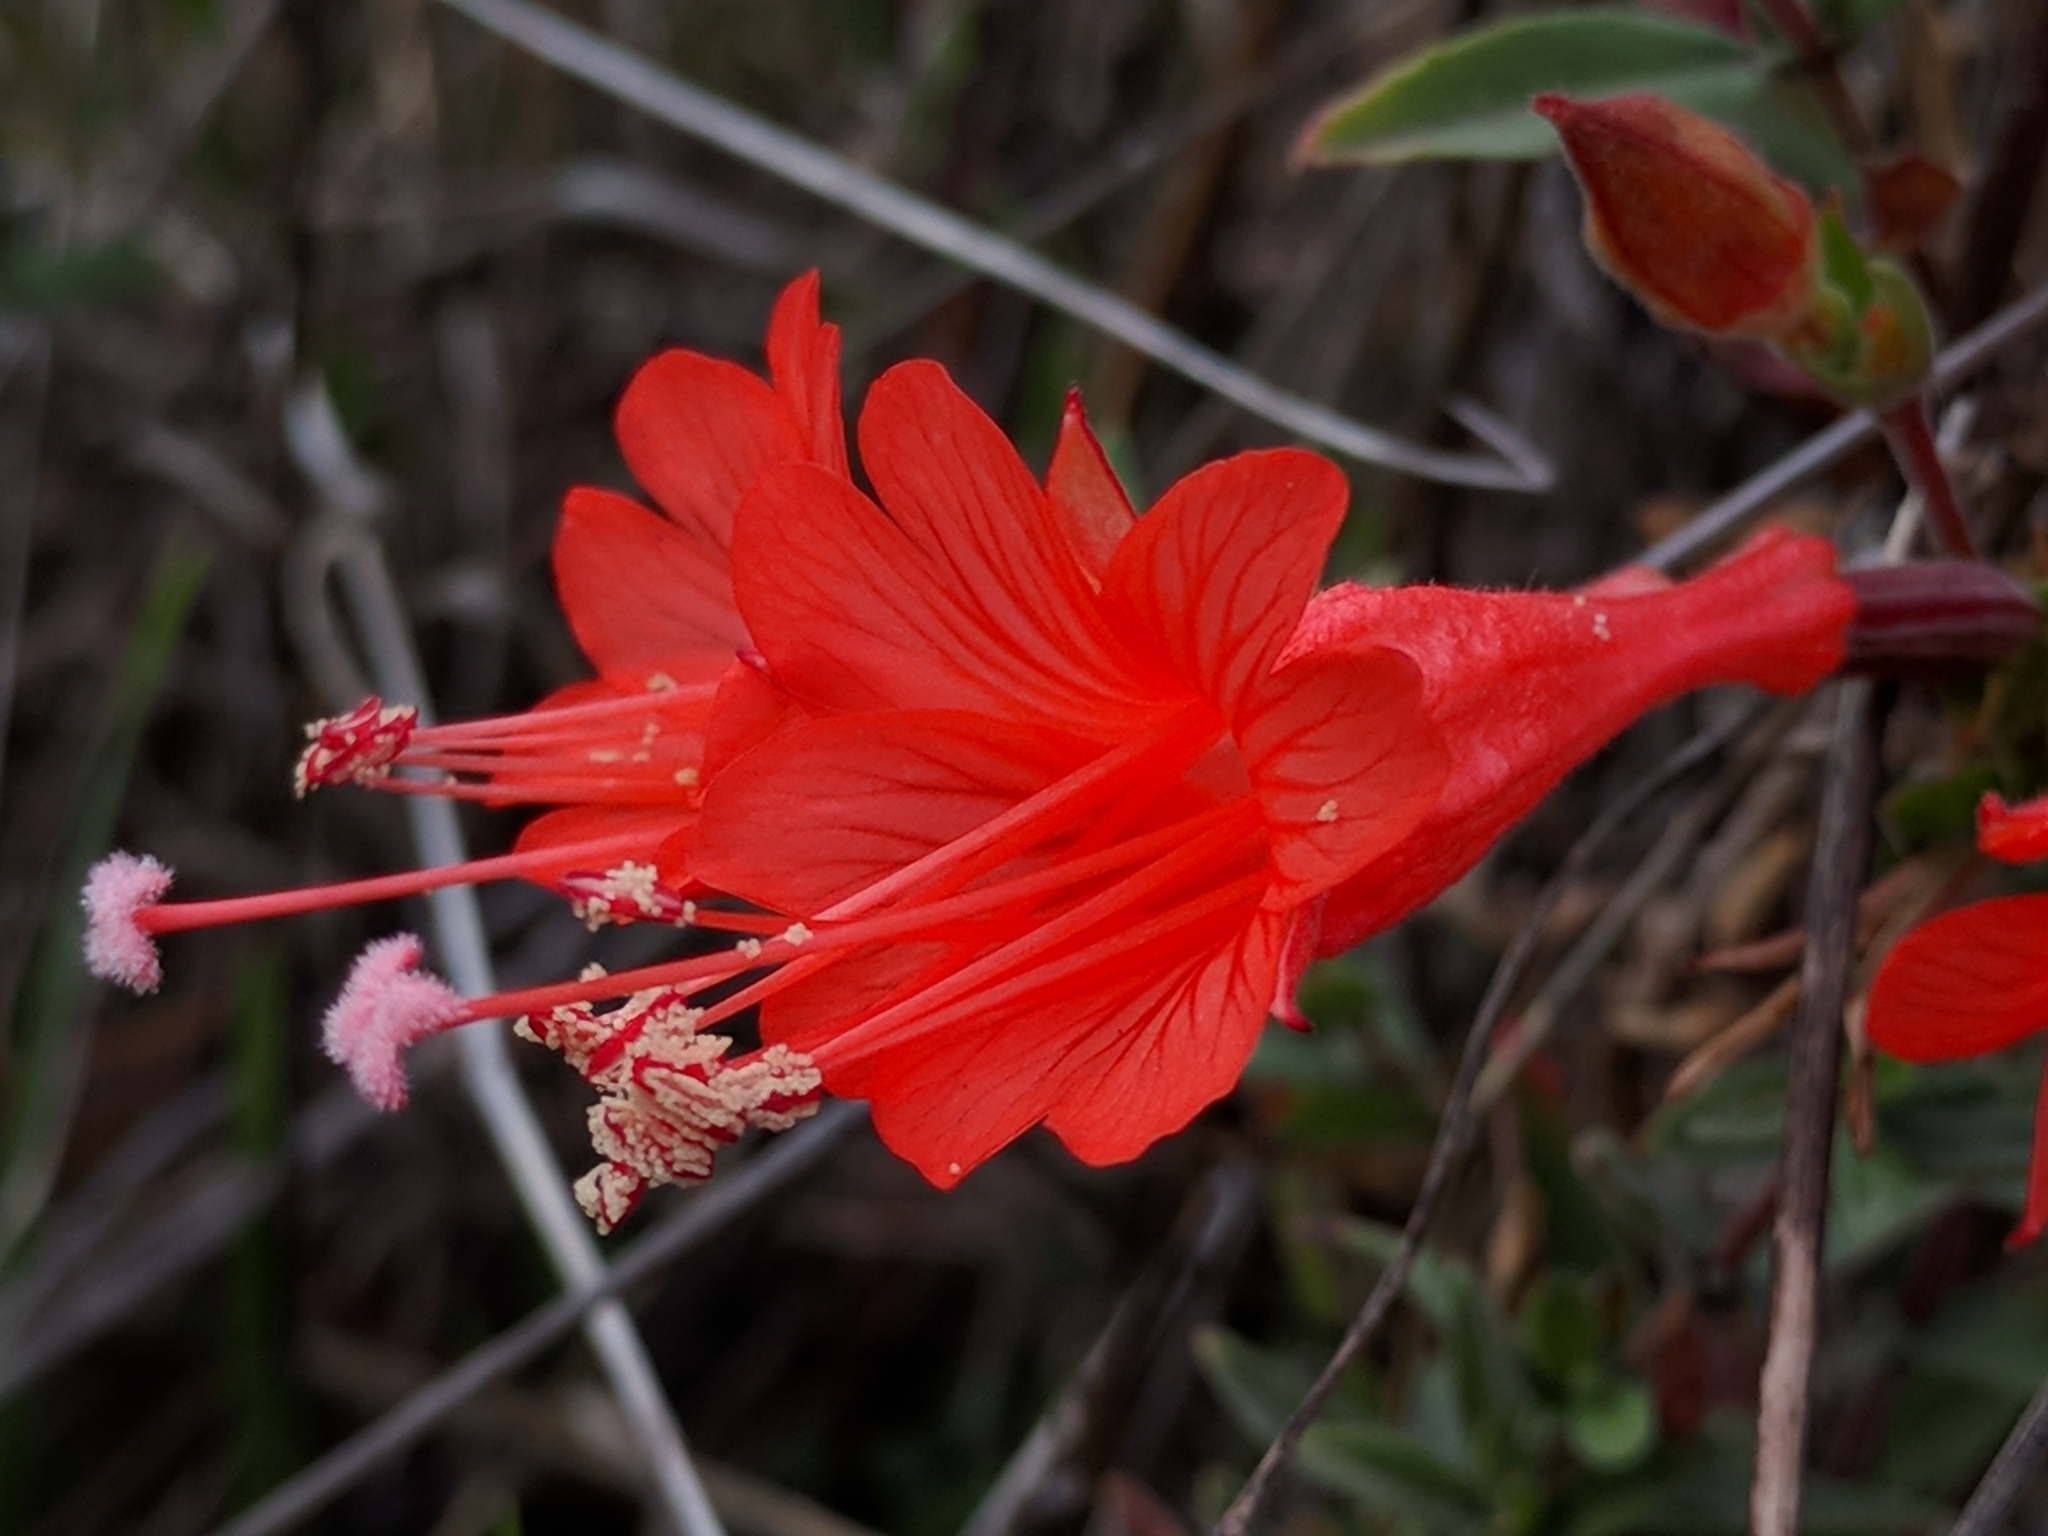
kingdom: Plantae
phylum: Tracheophyta
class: Magnoliopsida
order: Myrtales
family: Onagraceae
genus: Epilobium
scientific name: Epilobium canum
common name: California-fuchsia
